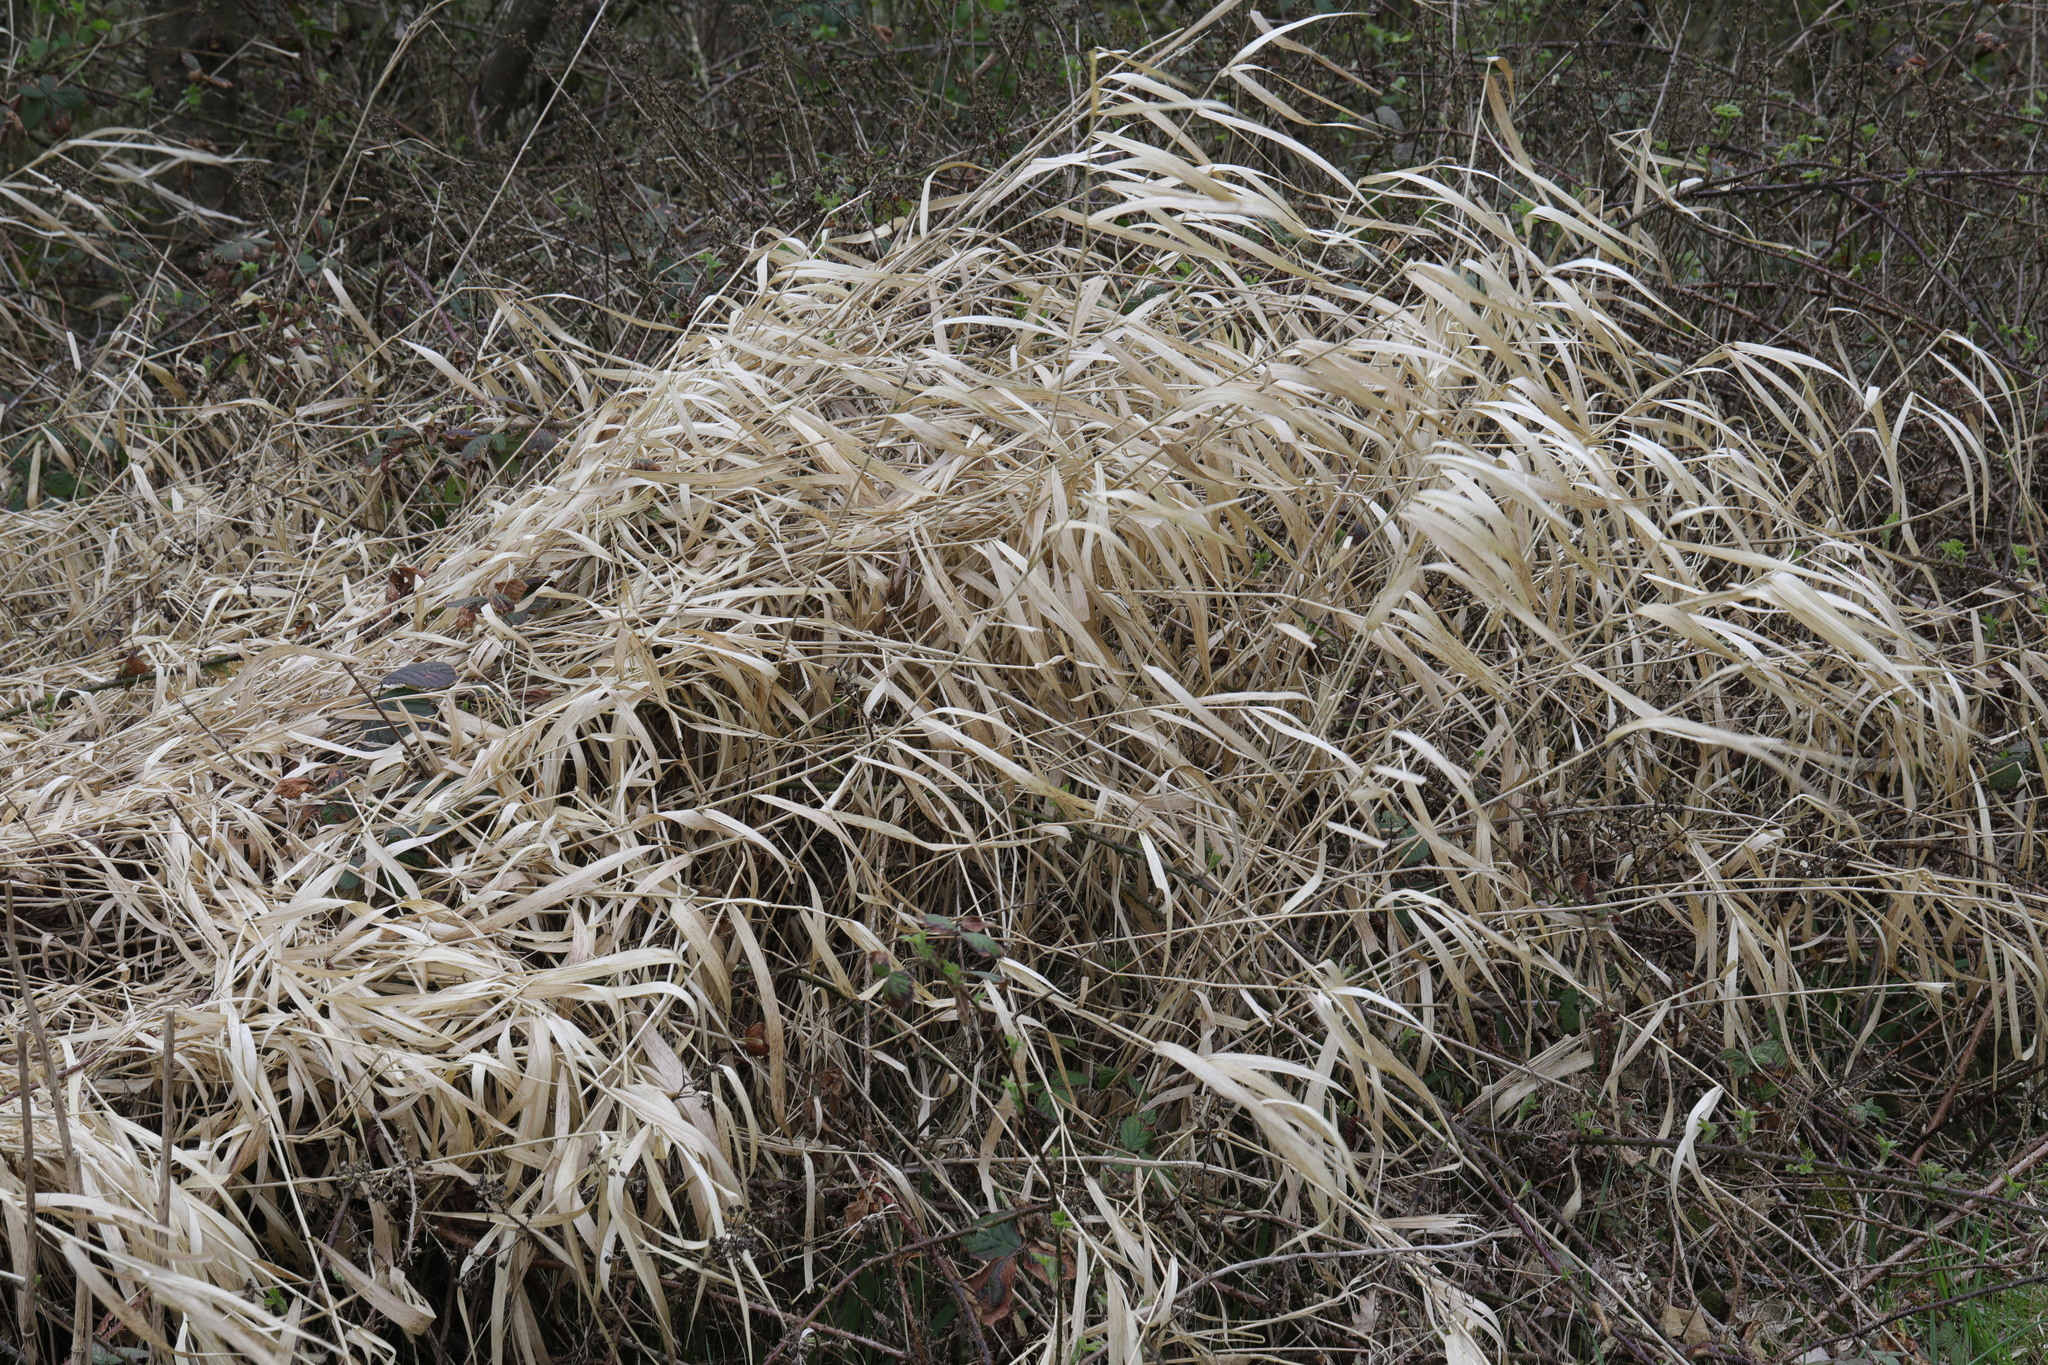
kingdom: Plantae
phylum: Tracheophyta
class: Liliopsida
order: Poales
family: Poaceae
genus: Phalaris
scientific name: Phalaris arundinacea
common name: Reed canary-grass
